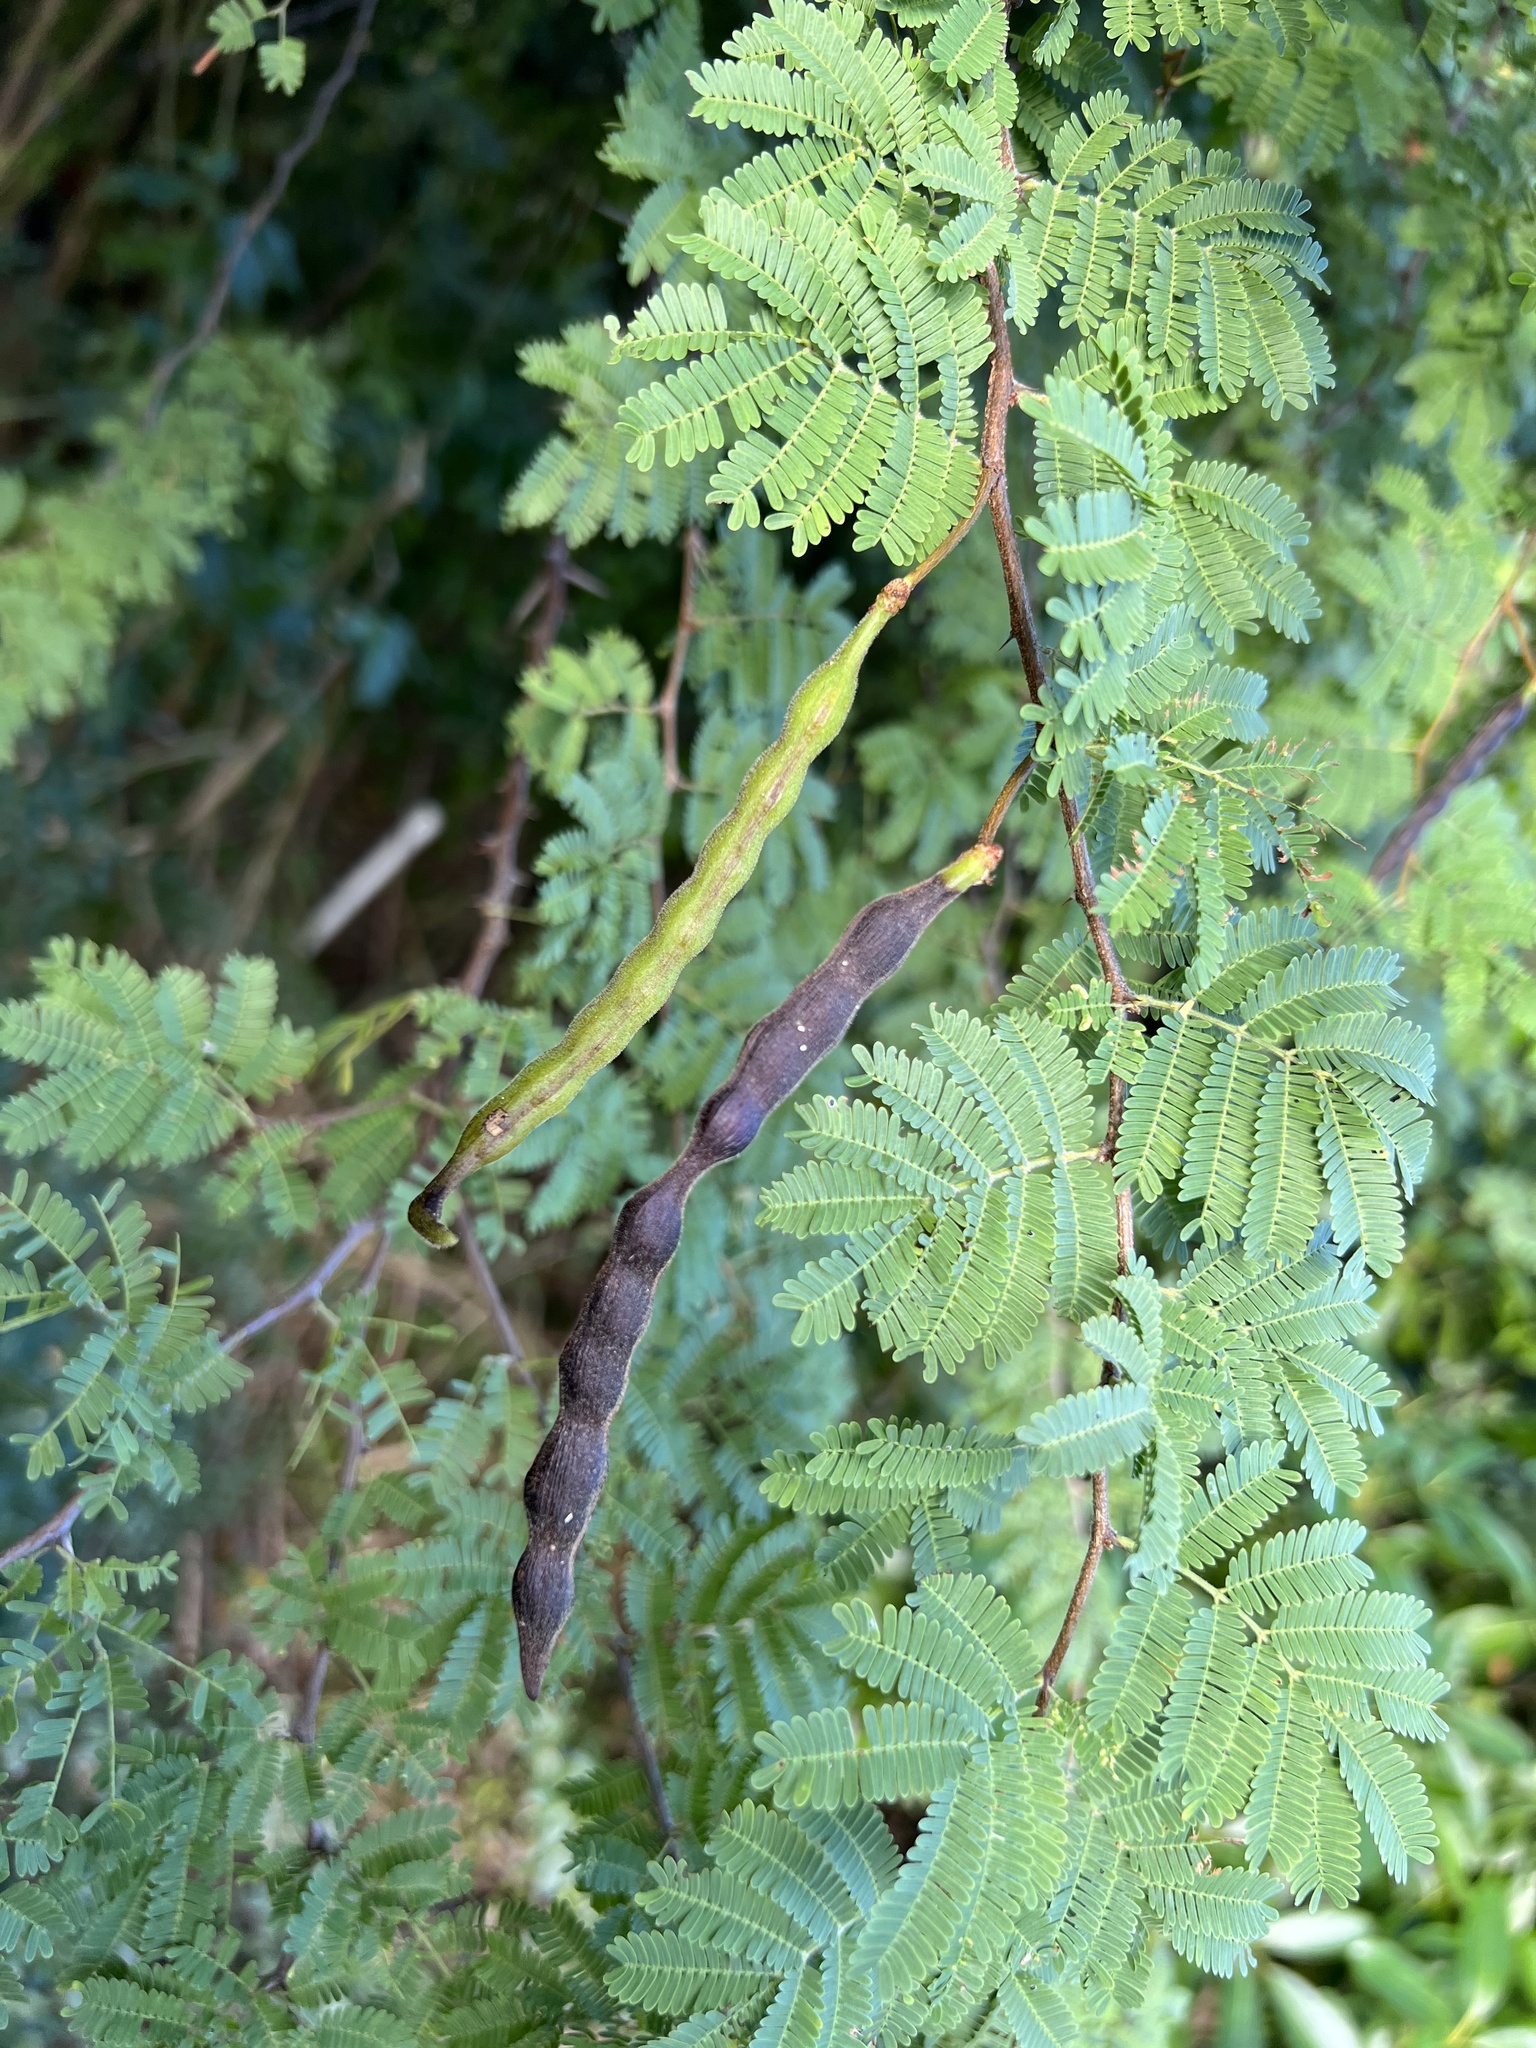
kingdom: Plantae
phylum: Tracheophyta
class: Magnoliopsida
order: Fabales
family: Fabaceae
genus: Vachellia
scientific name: Vachellia tortuosa
